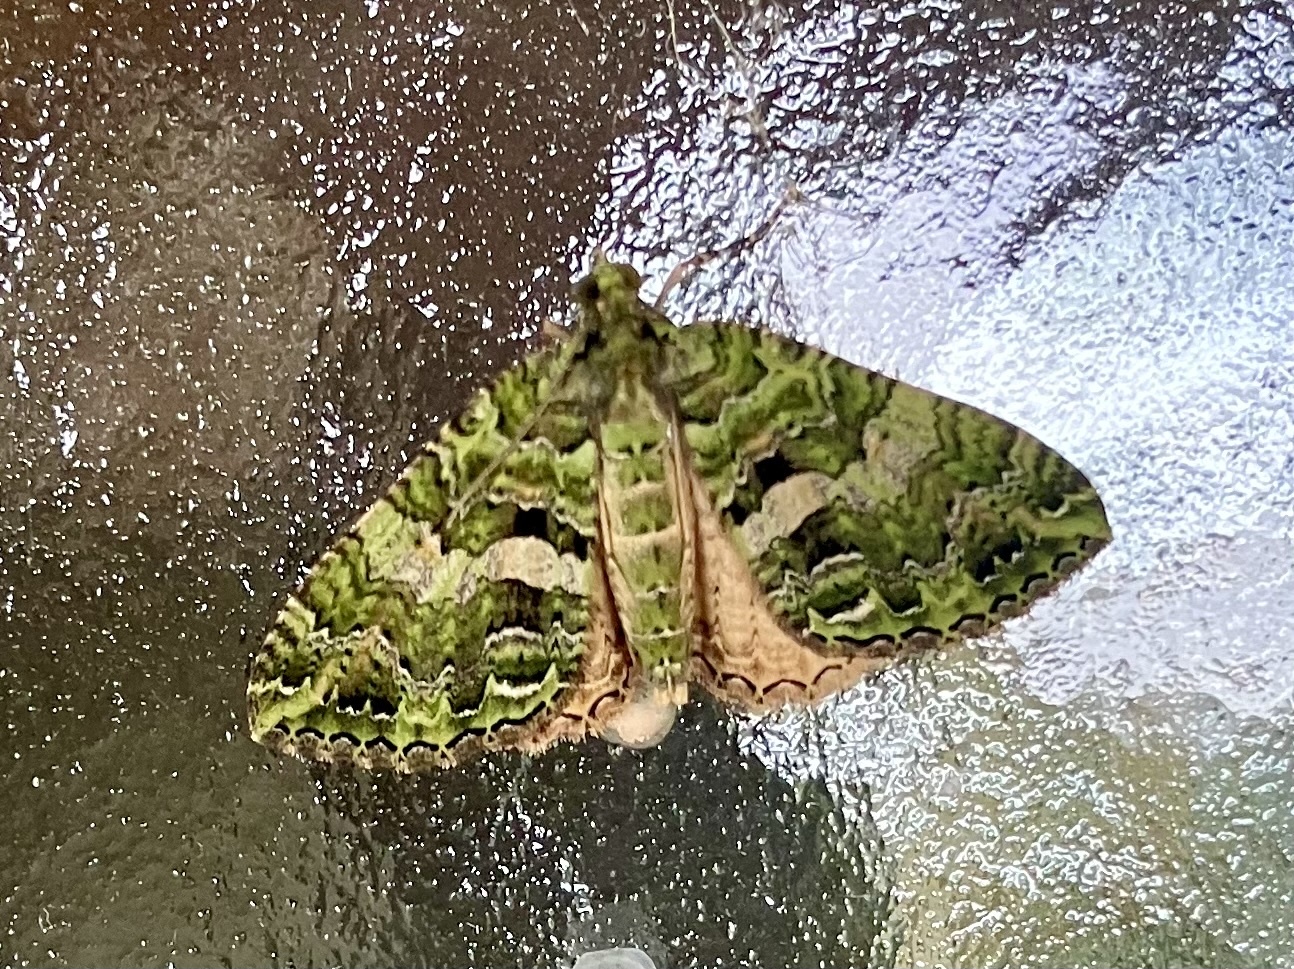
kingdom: Animalia
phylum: Arthropoda
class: Insecta
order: Lepidoptera
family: Geometridae
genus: Austrocidaria
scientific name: Austrocidaria similata
